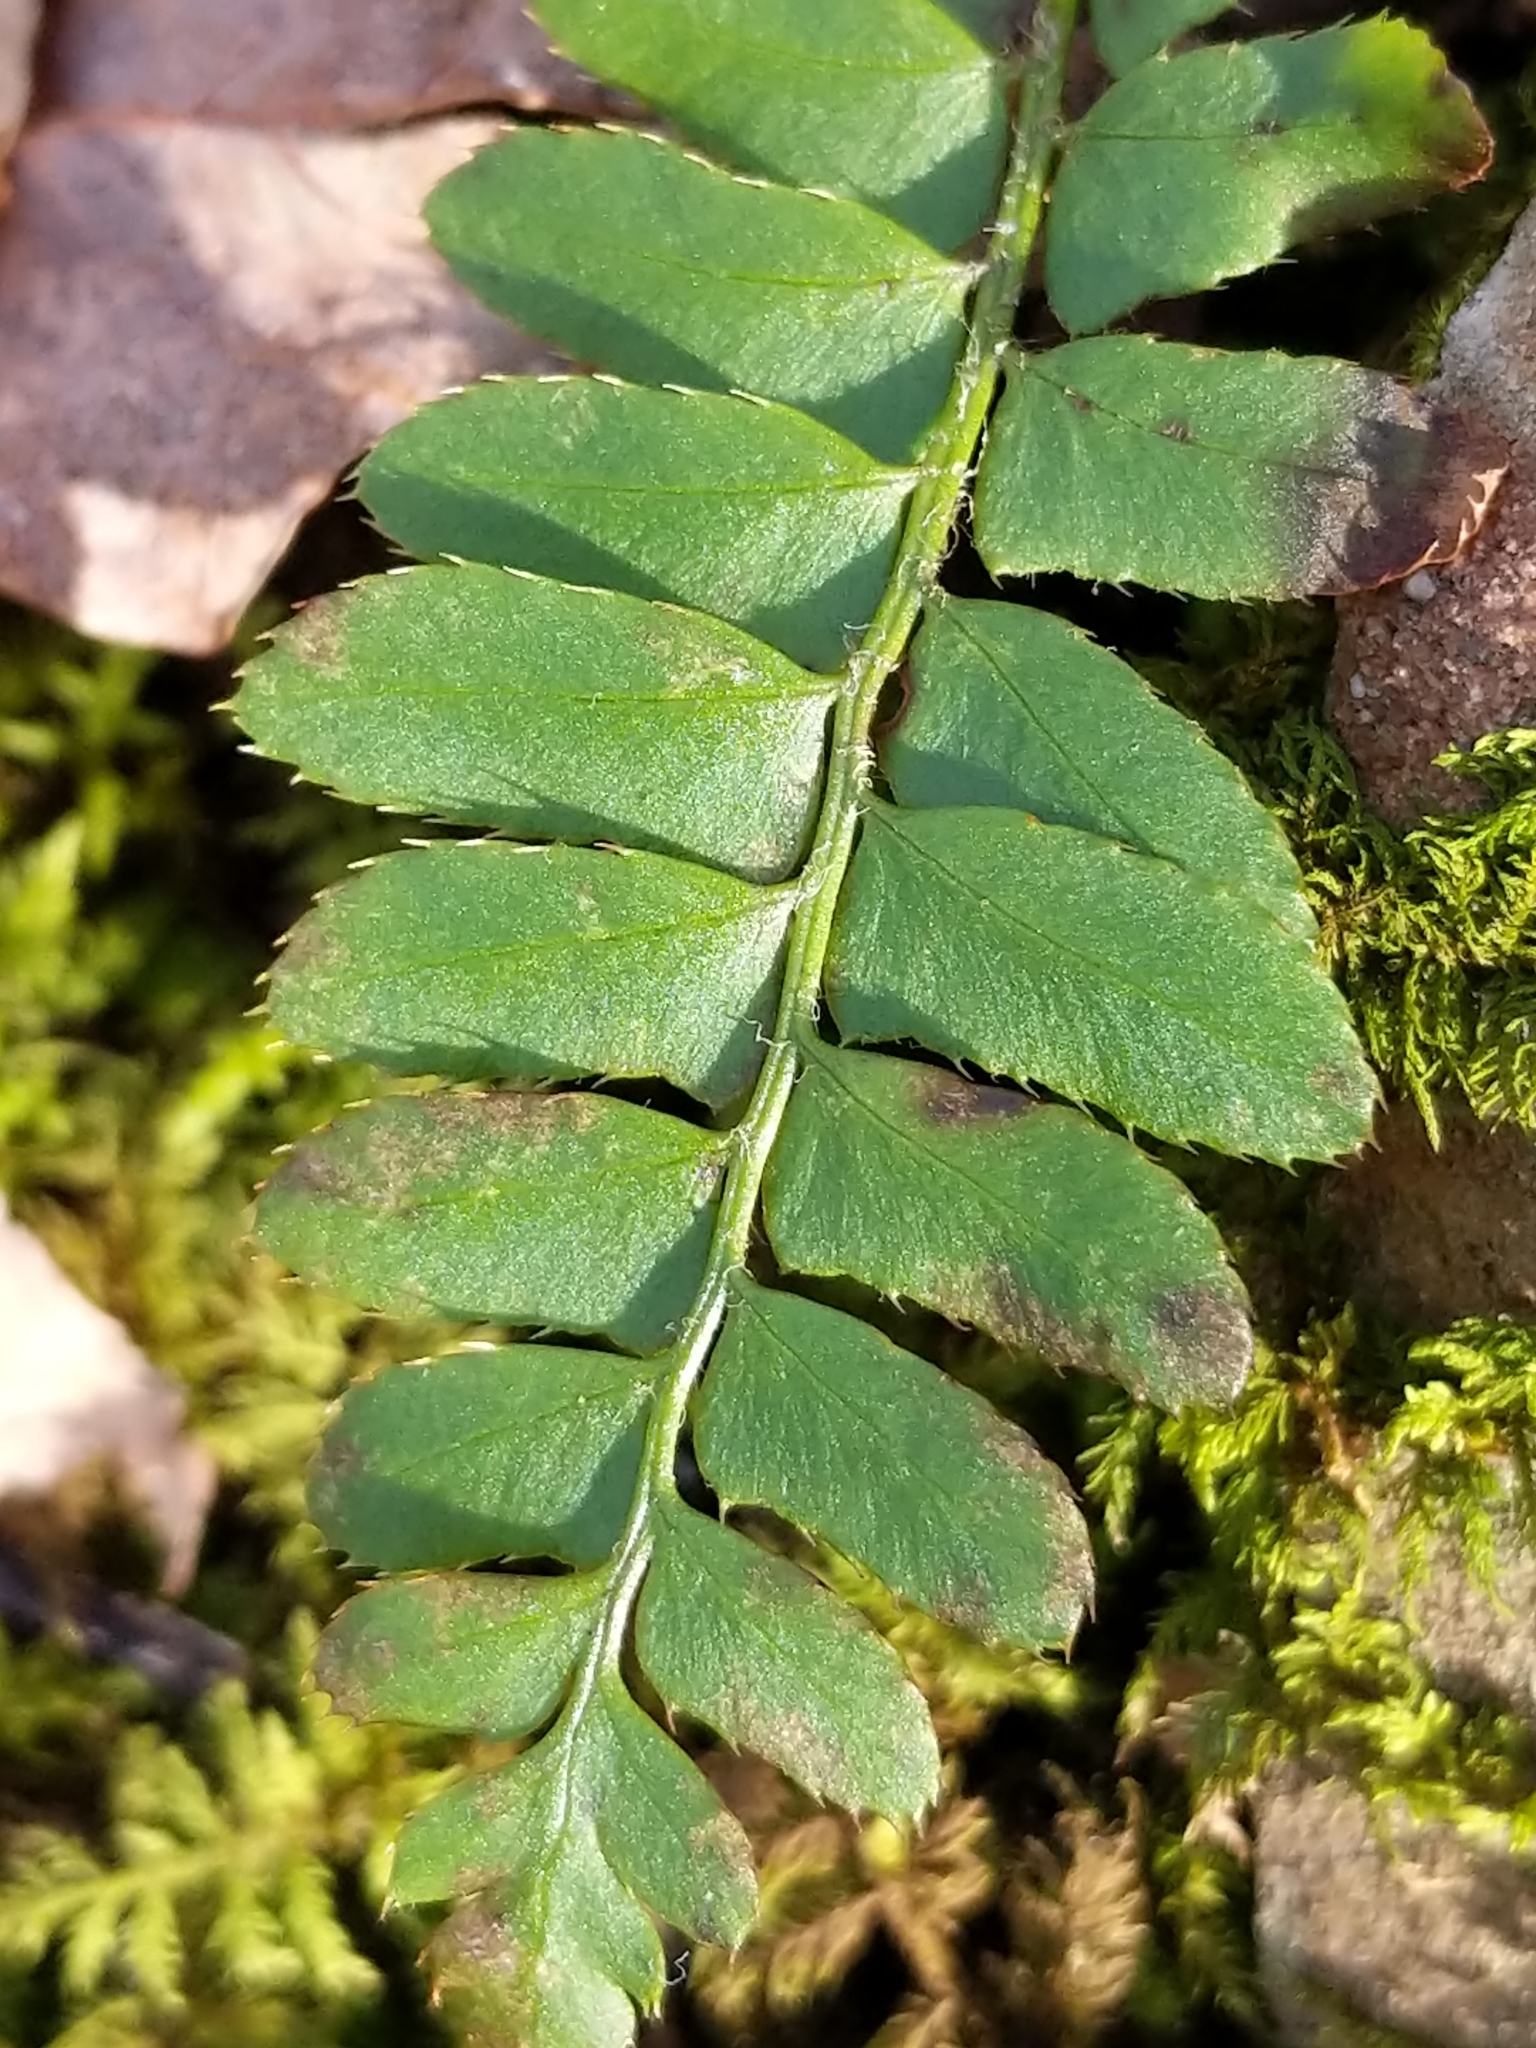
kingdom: Plantae
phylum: Tracheophyta
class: Polypodiopsida
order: Polypodiales
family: Dryopteridaceae
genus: Polystichum
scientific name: Polystichum acrostichoides
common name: Christmas fern
